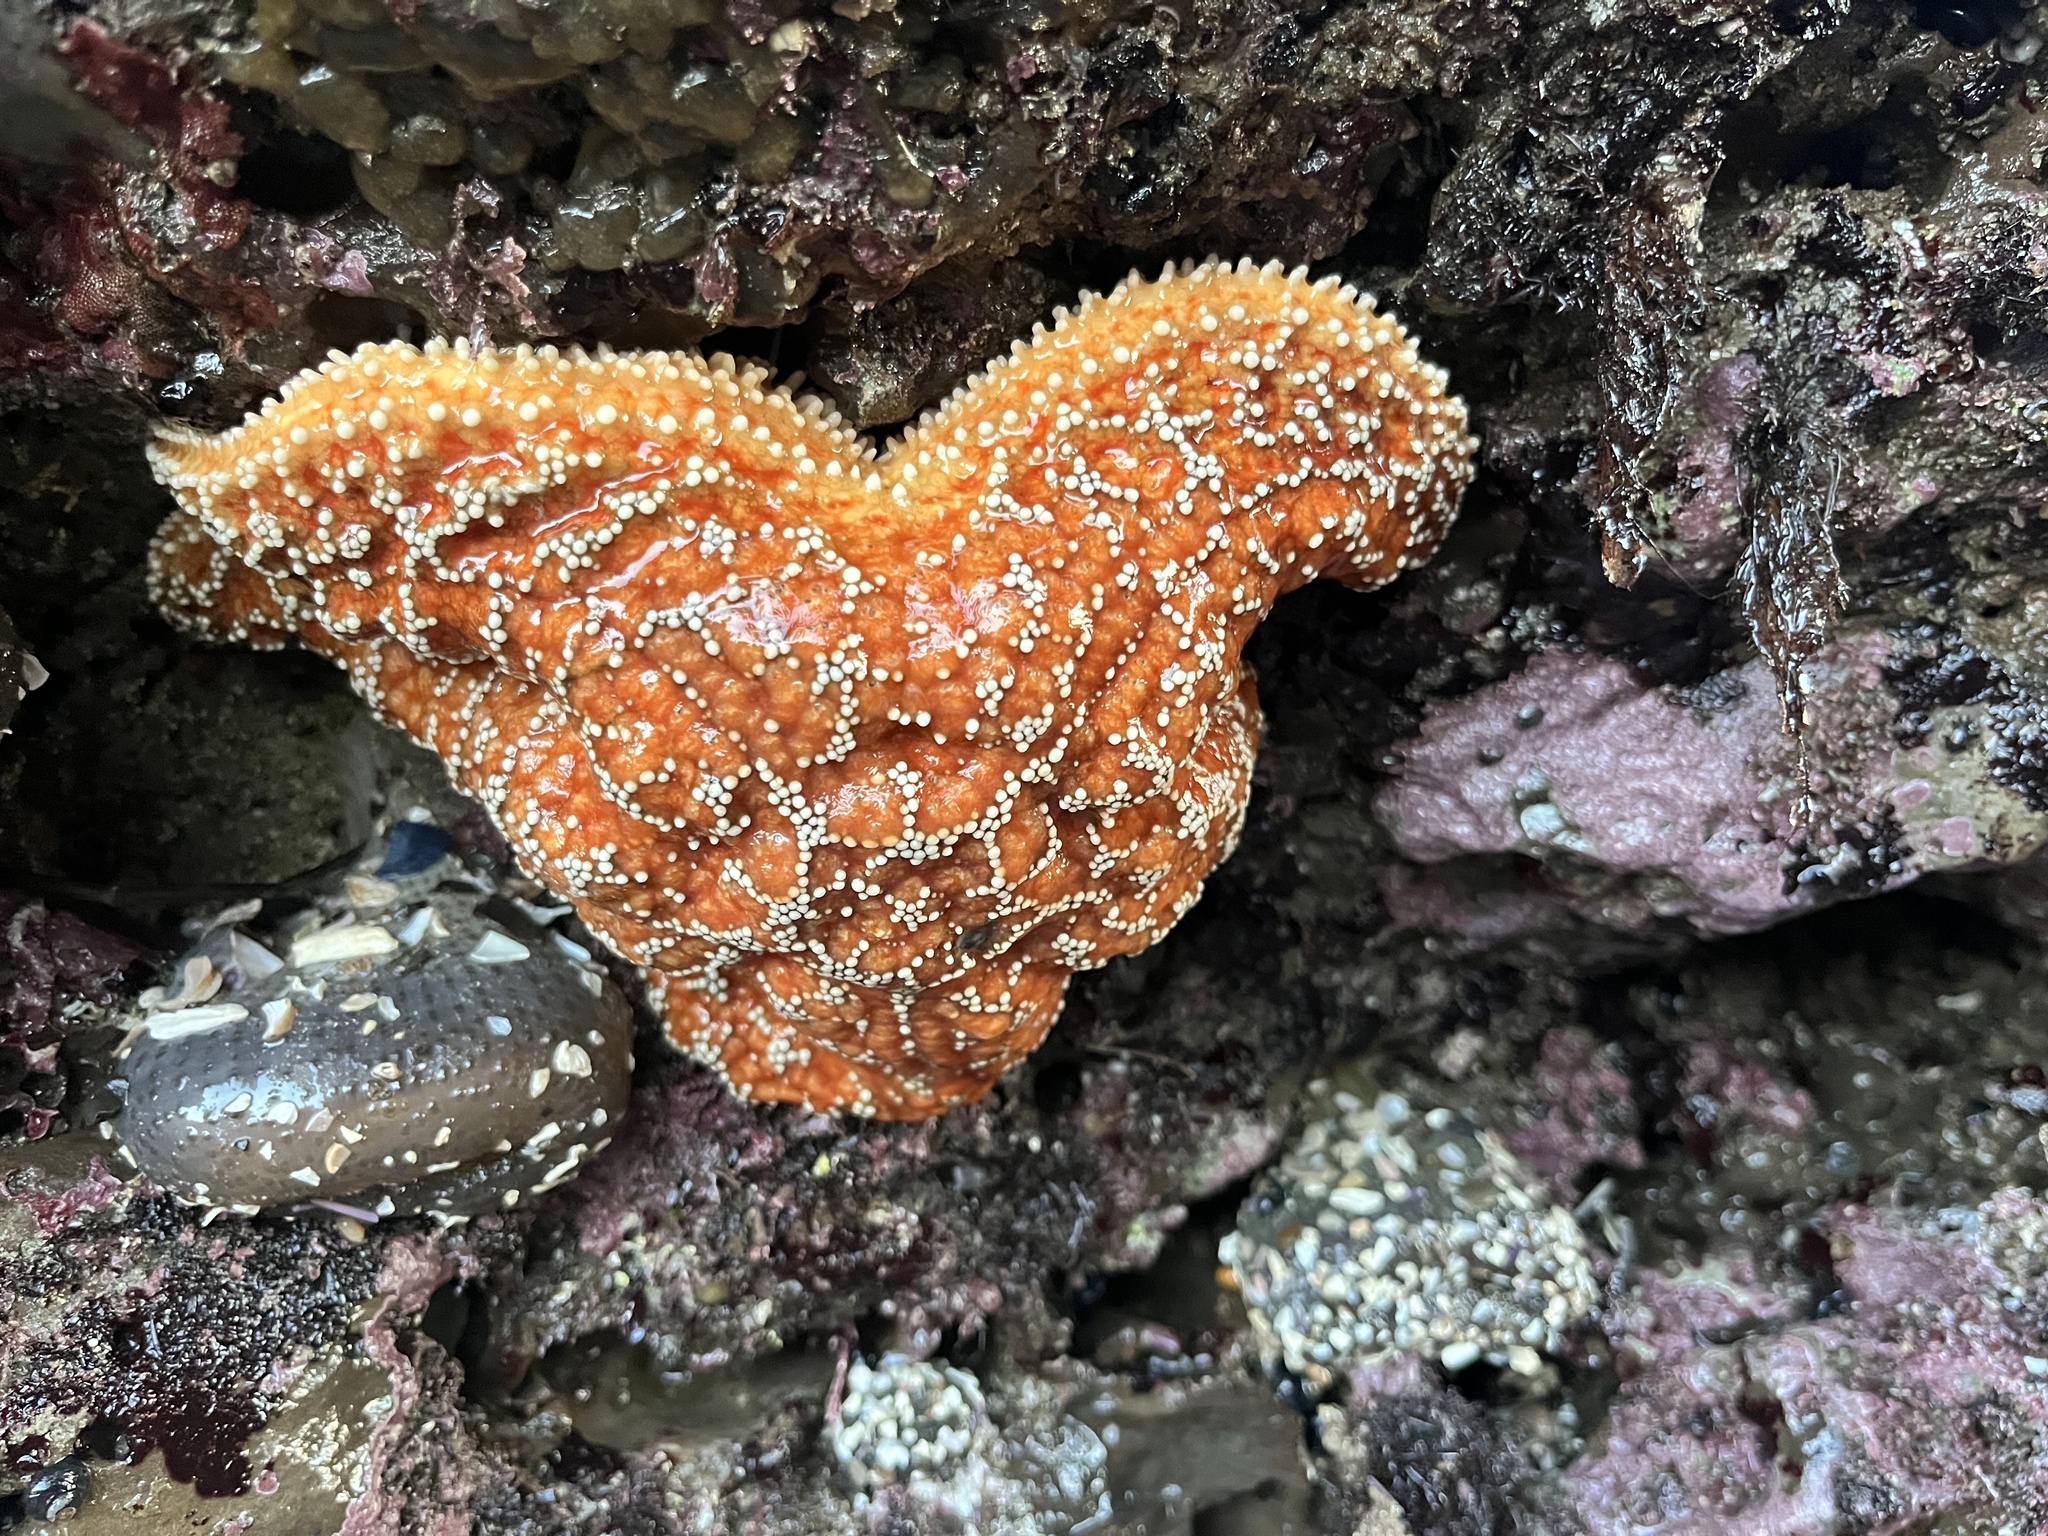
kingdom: Animalia
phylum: Echinodermata
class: Asteroidea
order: Forcipulatida
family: Asteriidae
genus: Pisaster
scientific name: Pisaster ochraceus
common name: Ochre stars
